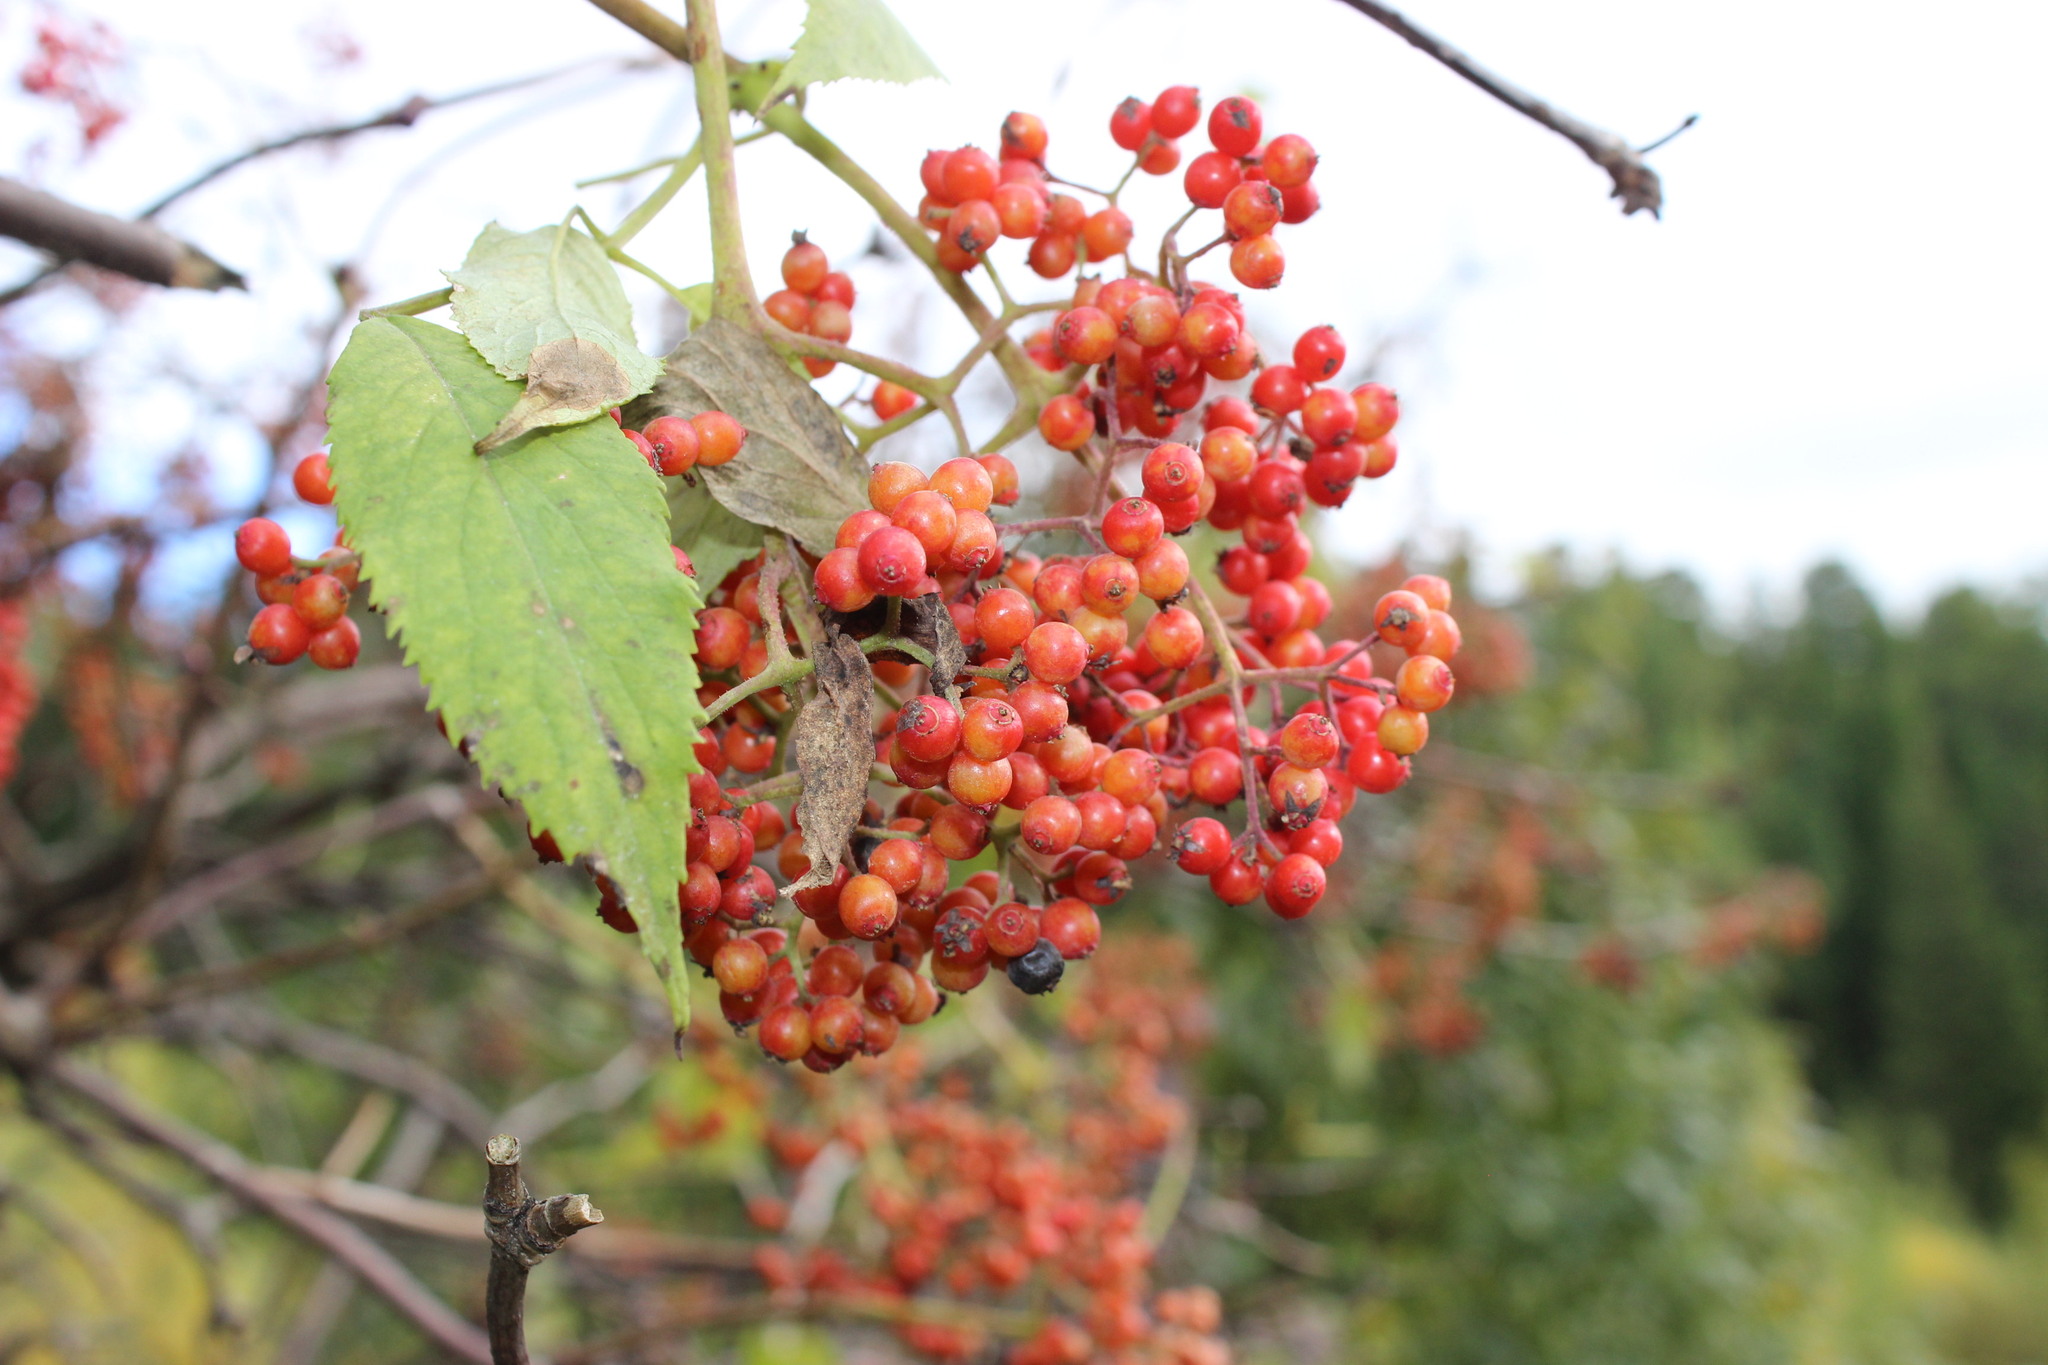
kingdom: Plantae
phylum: Tracheophyta
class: Magnoliopsida
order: Dipsacales
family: Viburnaceae
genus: Sambucus
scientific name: Sambucus sibirica
